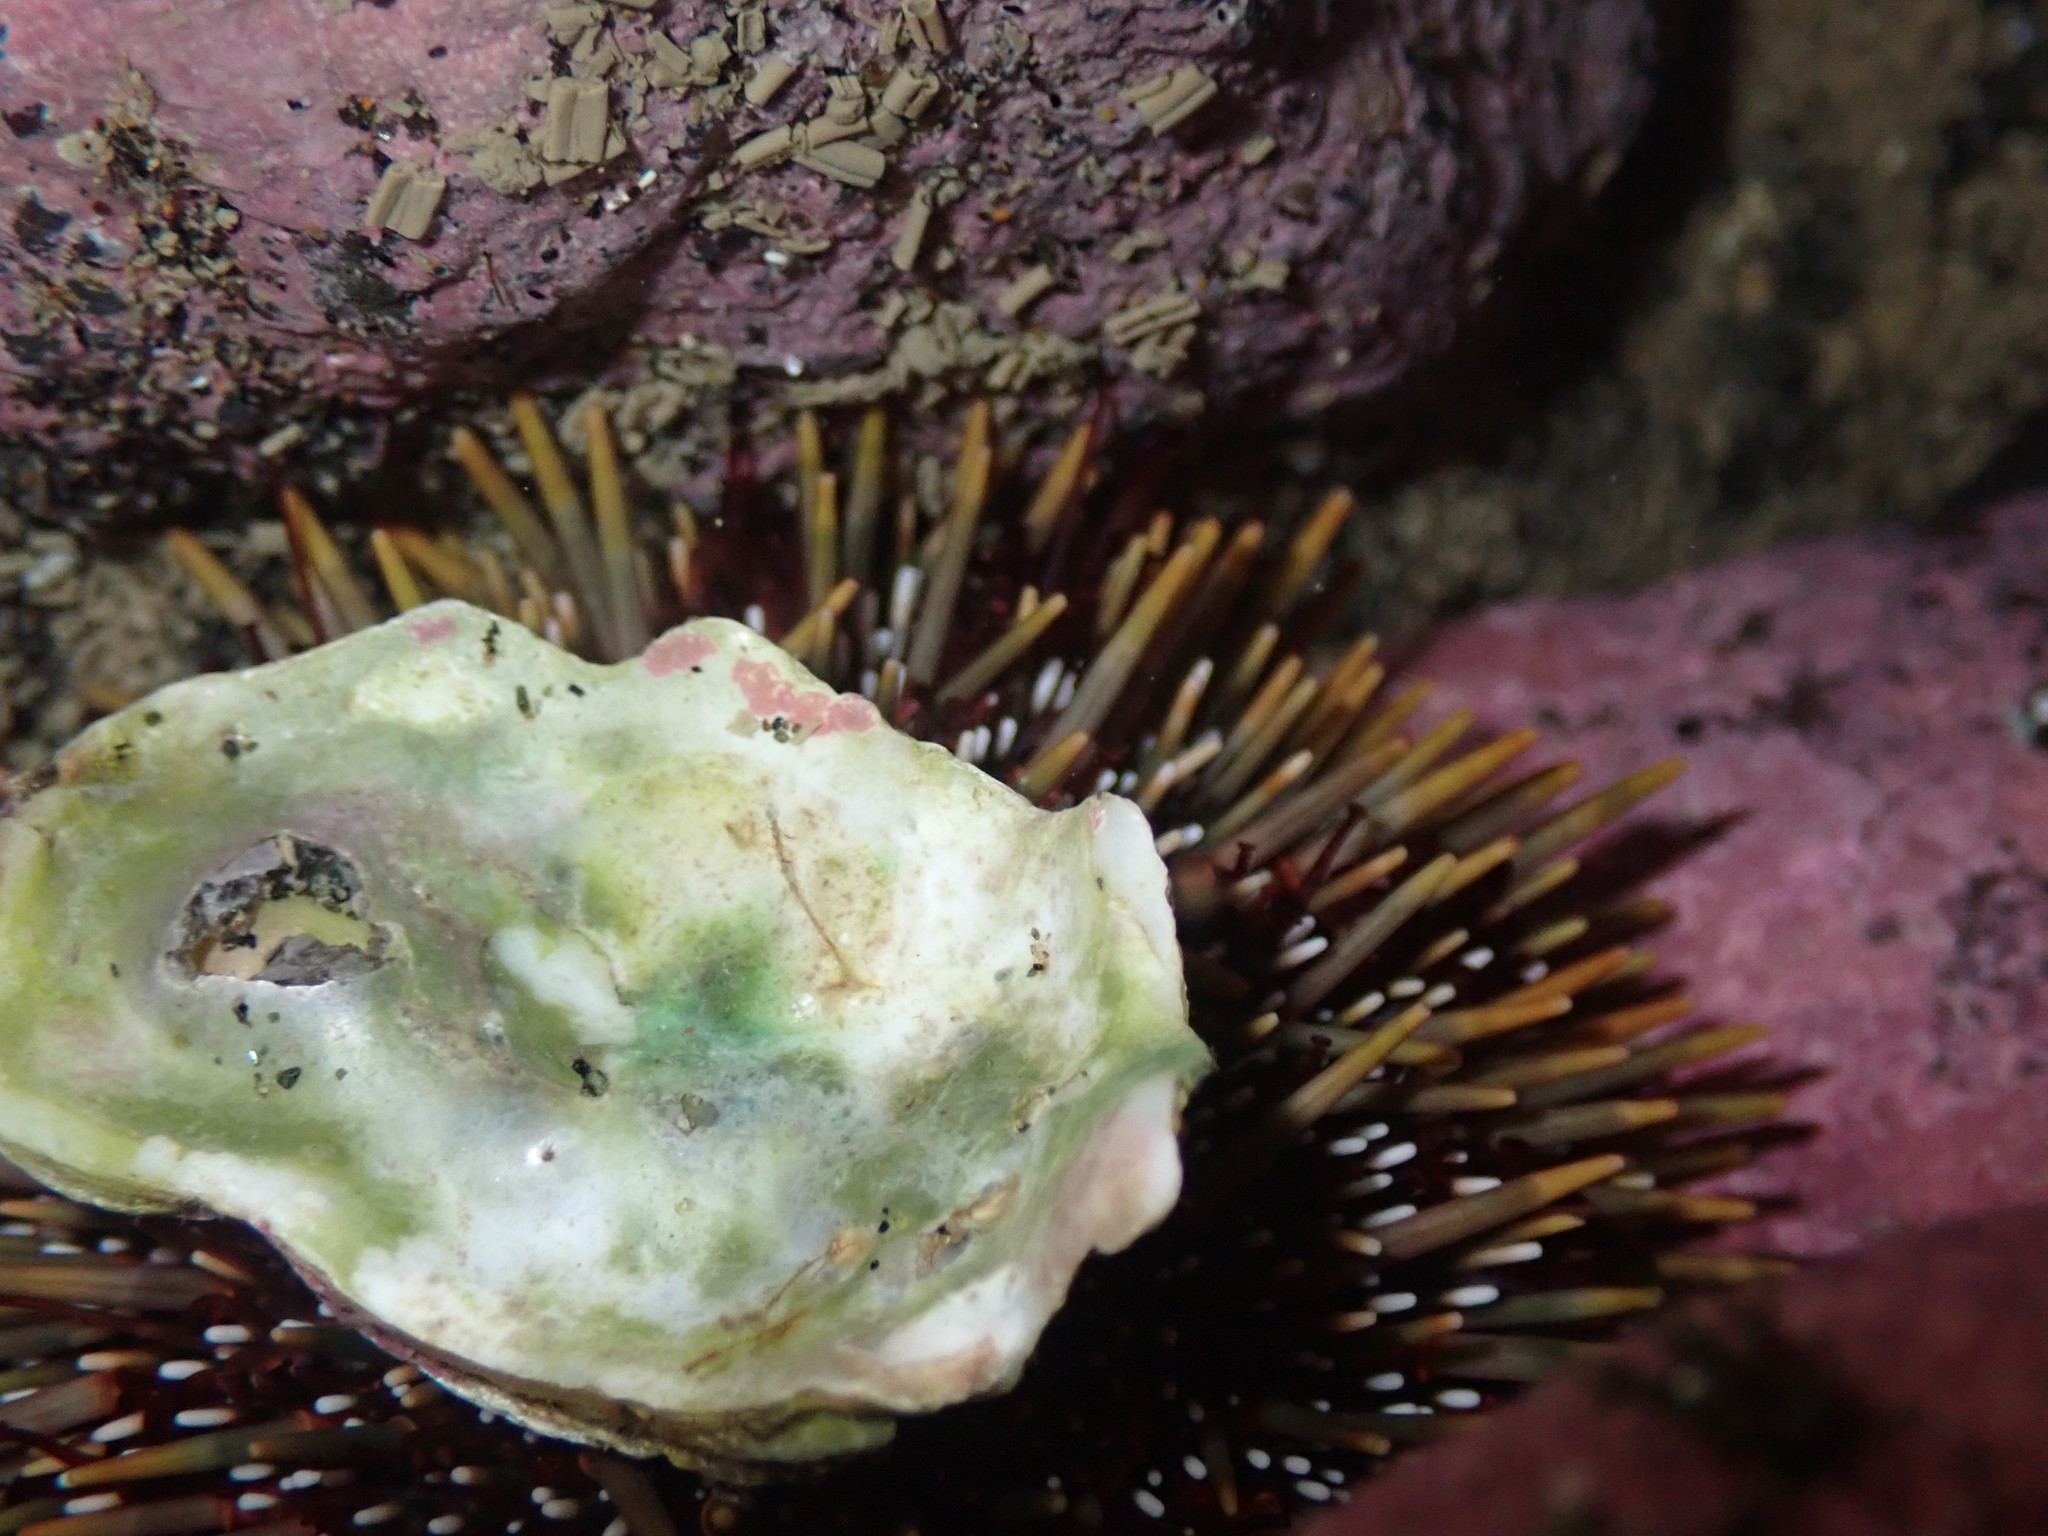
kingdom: Animalia
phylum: Echinodermata
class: Echinoidea
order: Camarodonta
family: Echinometridae
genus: Evechinus
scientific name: Evechinus chloroticus
